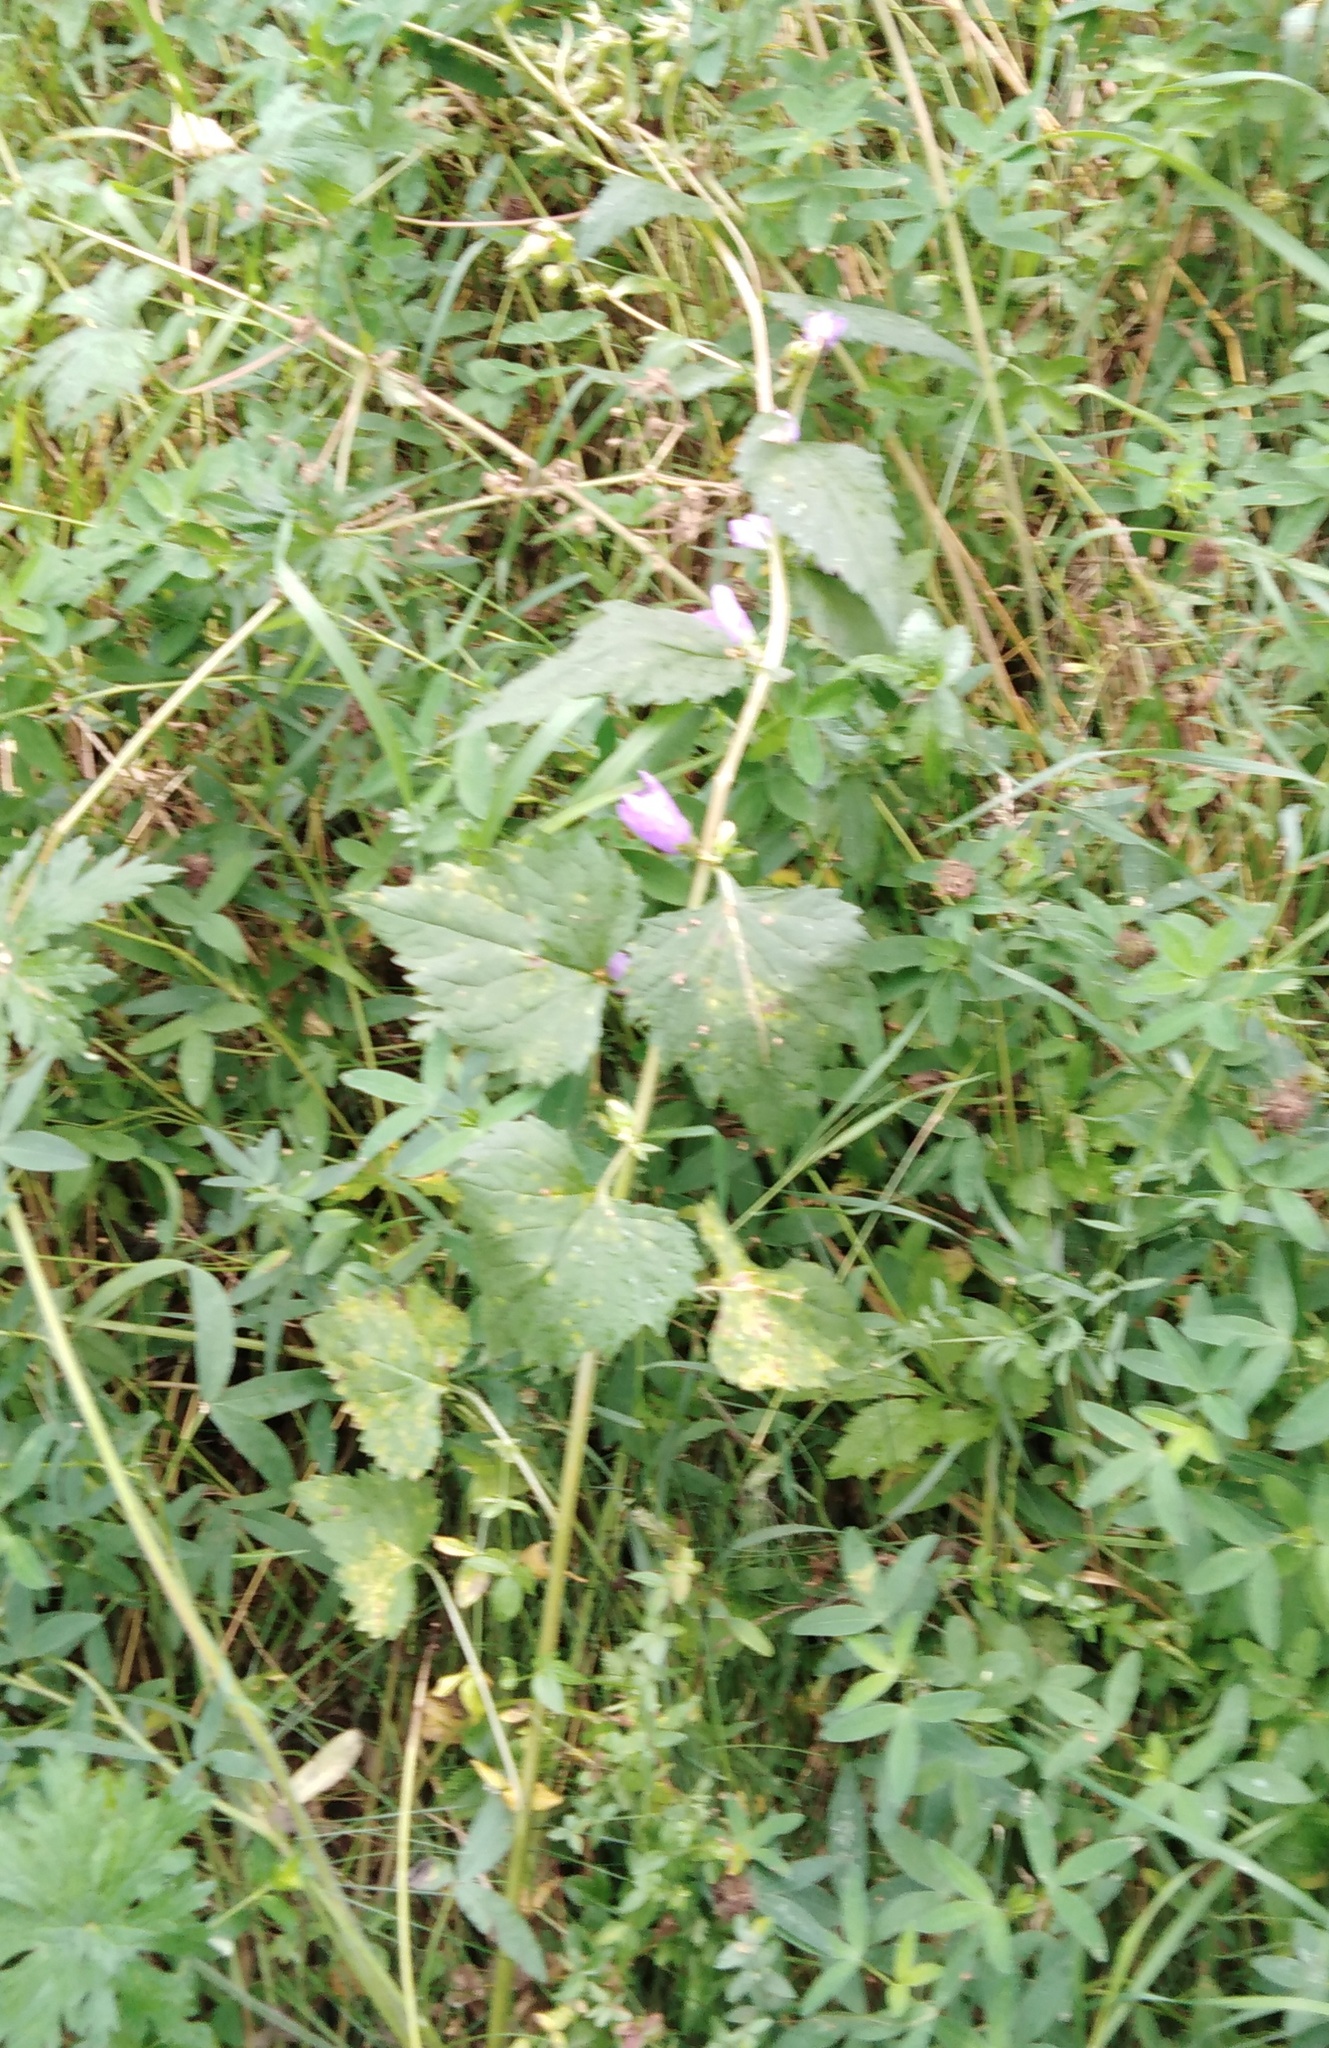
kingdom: Plantae
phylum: Tracheophyta
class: Magnoliopsida
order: Asterales
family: Campanulaceae
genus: Campanula
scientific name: Campanula trachelium
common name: Nettle-leaved bellflower
